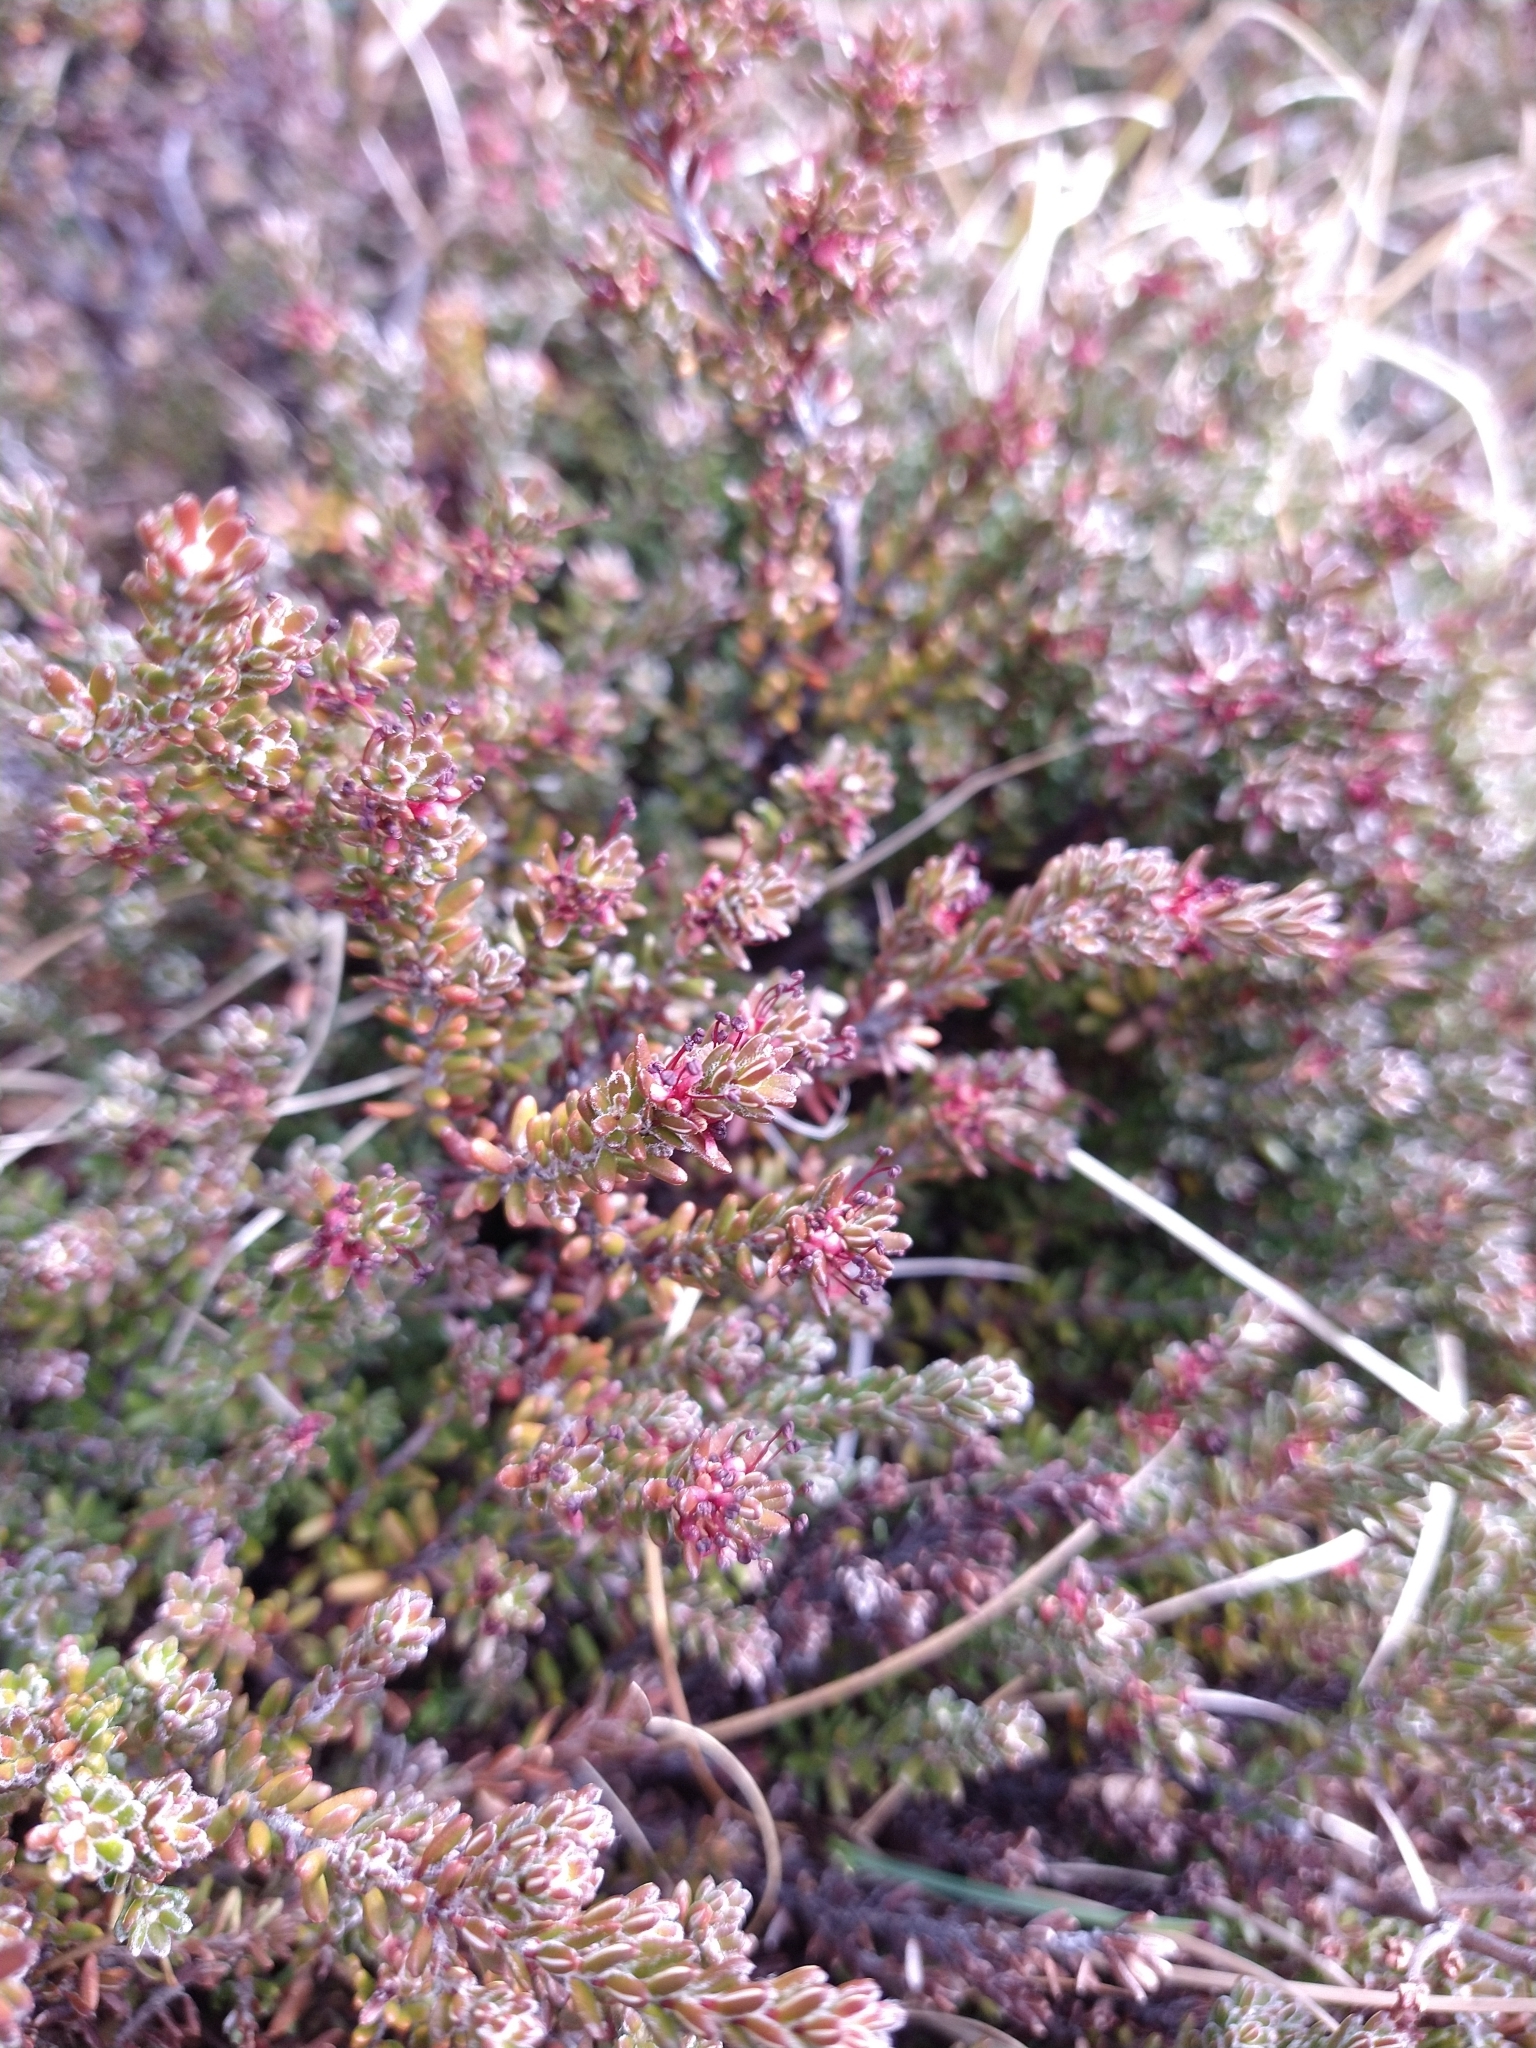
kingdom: Plantae
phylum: Tracheophyta
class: Magnoliopsida
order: Ericales
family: Ericaceae
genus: Empetrum
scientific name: Empetrum rubrum
